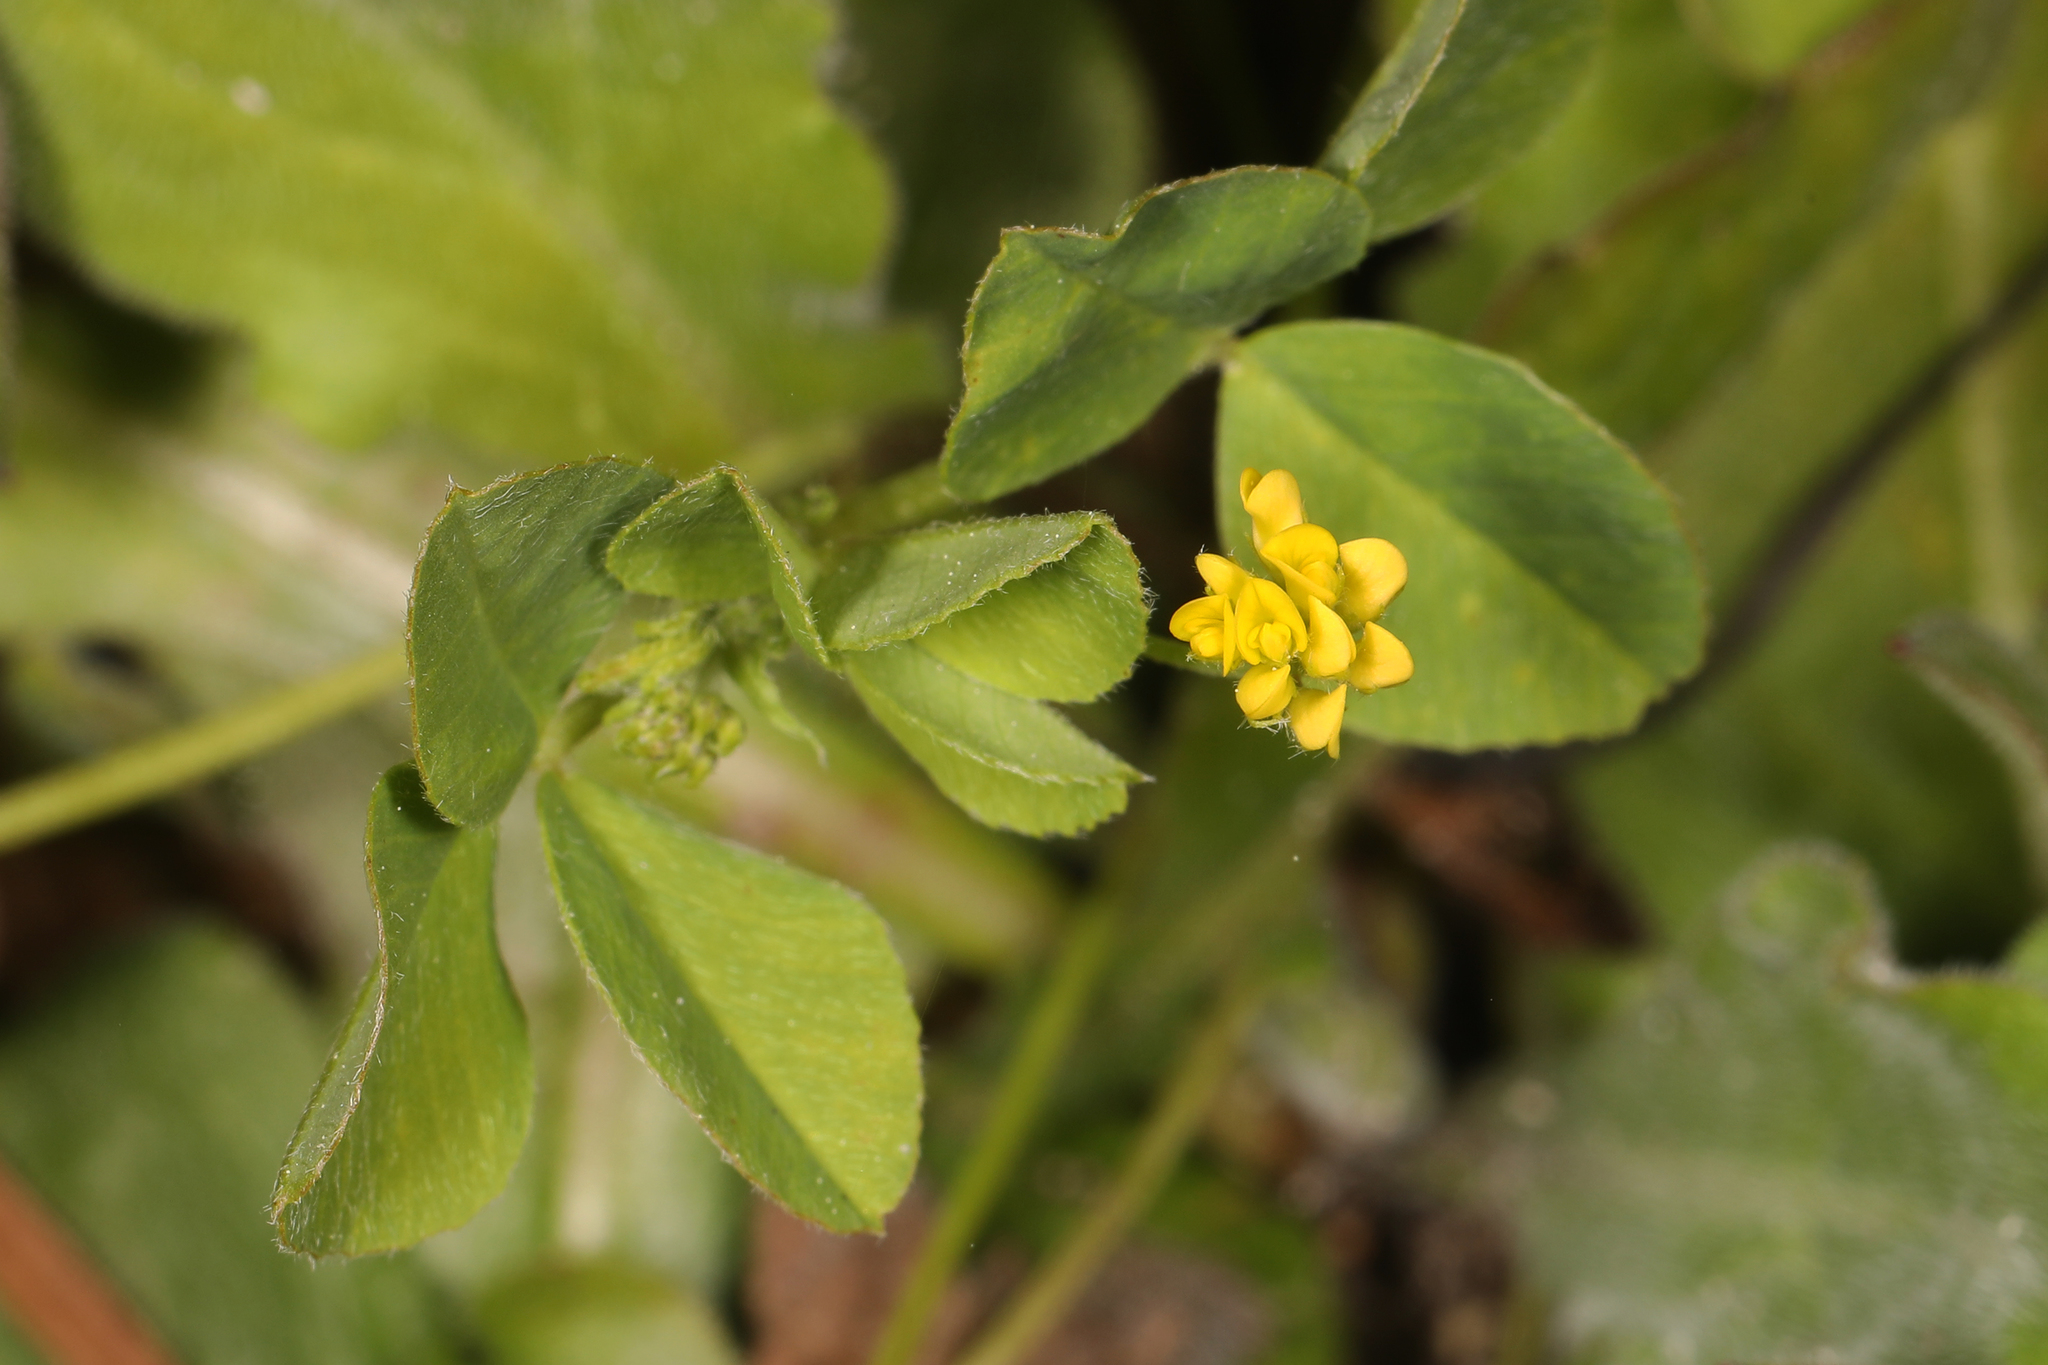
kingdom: Plantae
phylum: Tracheophyta
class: Magnoliopsida
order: Fabales
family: Fabaceae
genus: Medicago
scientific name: Medicago lupulina
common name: Black medick
